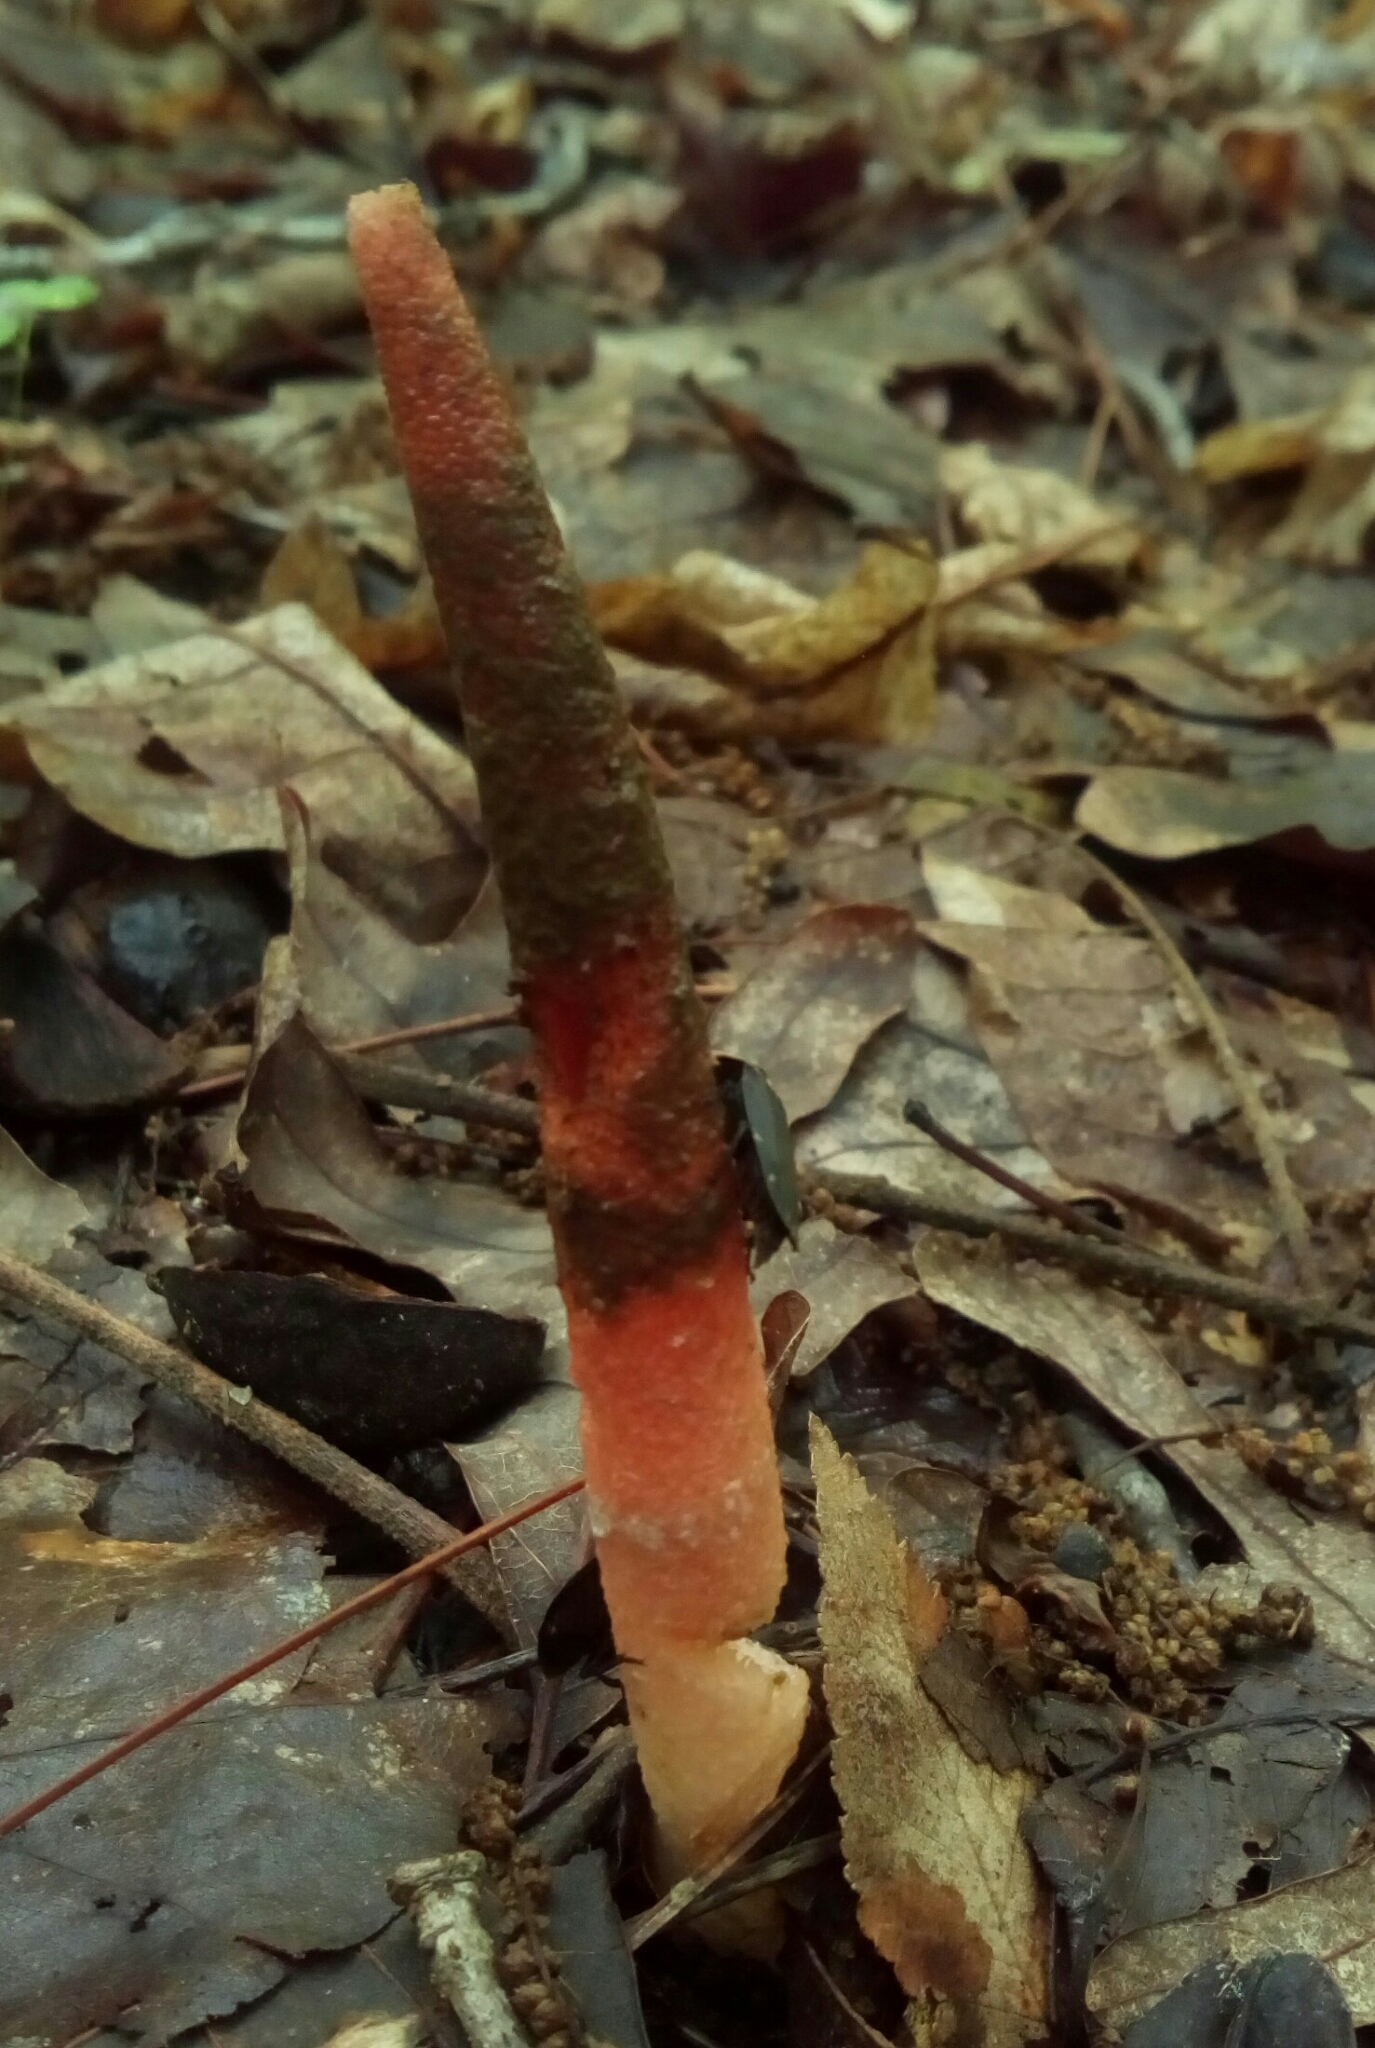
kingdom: Fungi
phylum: Basidiomycota
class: Agaricomycetes
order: Phallales
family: Phallaceae
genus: Mutinus
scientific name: Mutinus elegans
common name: Devil's dipstick
